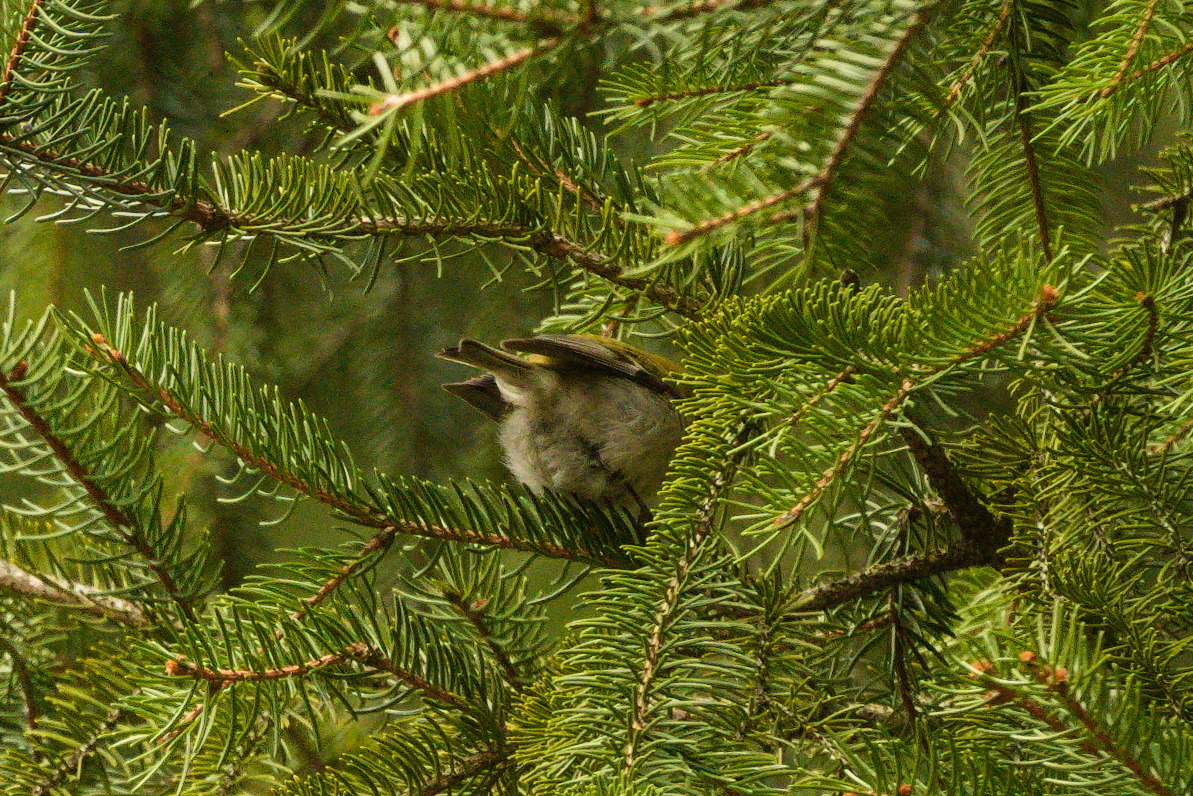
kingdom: Animalia
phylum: Chordata
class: Aves
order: Passeriformes
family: Regulidae
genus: Regulus
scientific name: Regulus ignicapilla
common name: Firecrest
